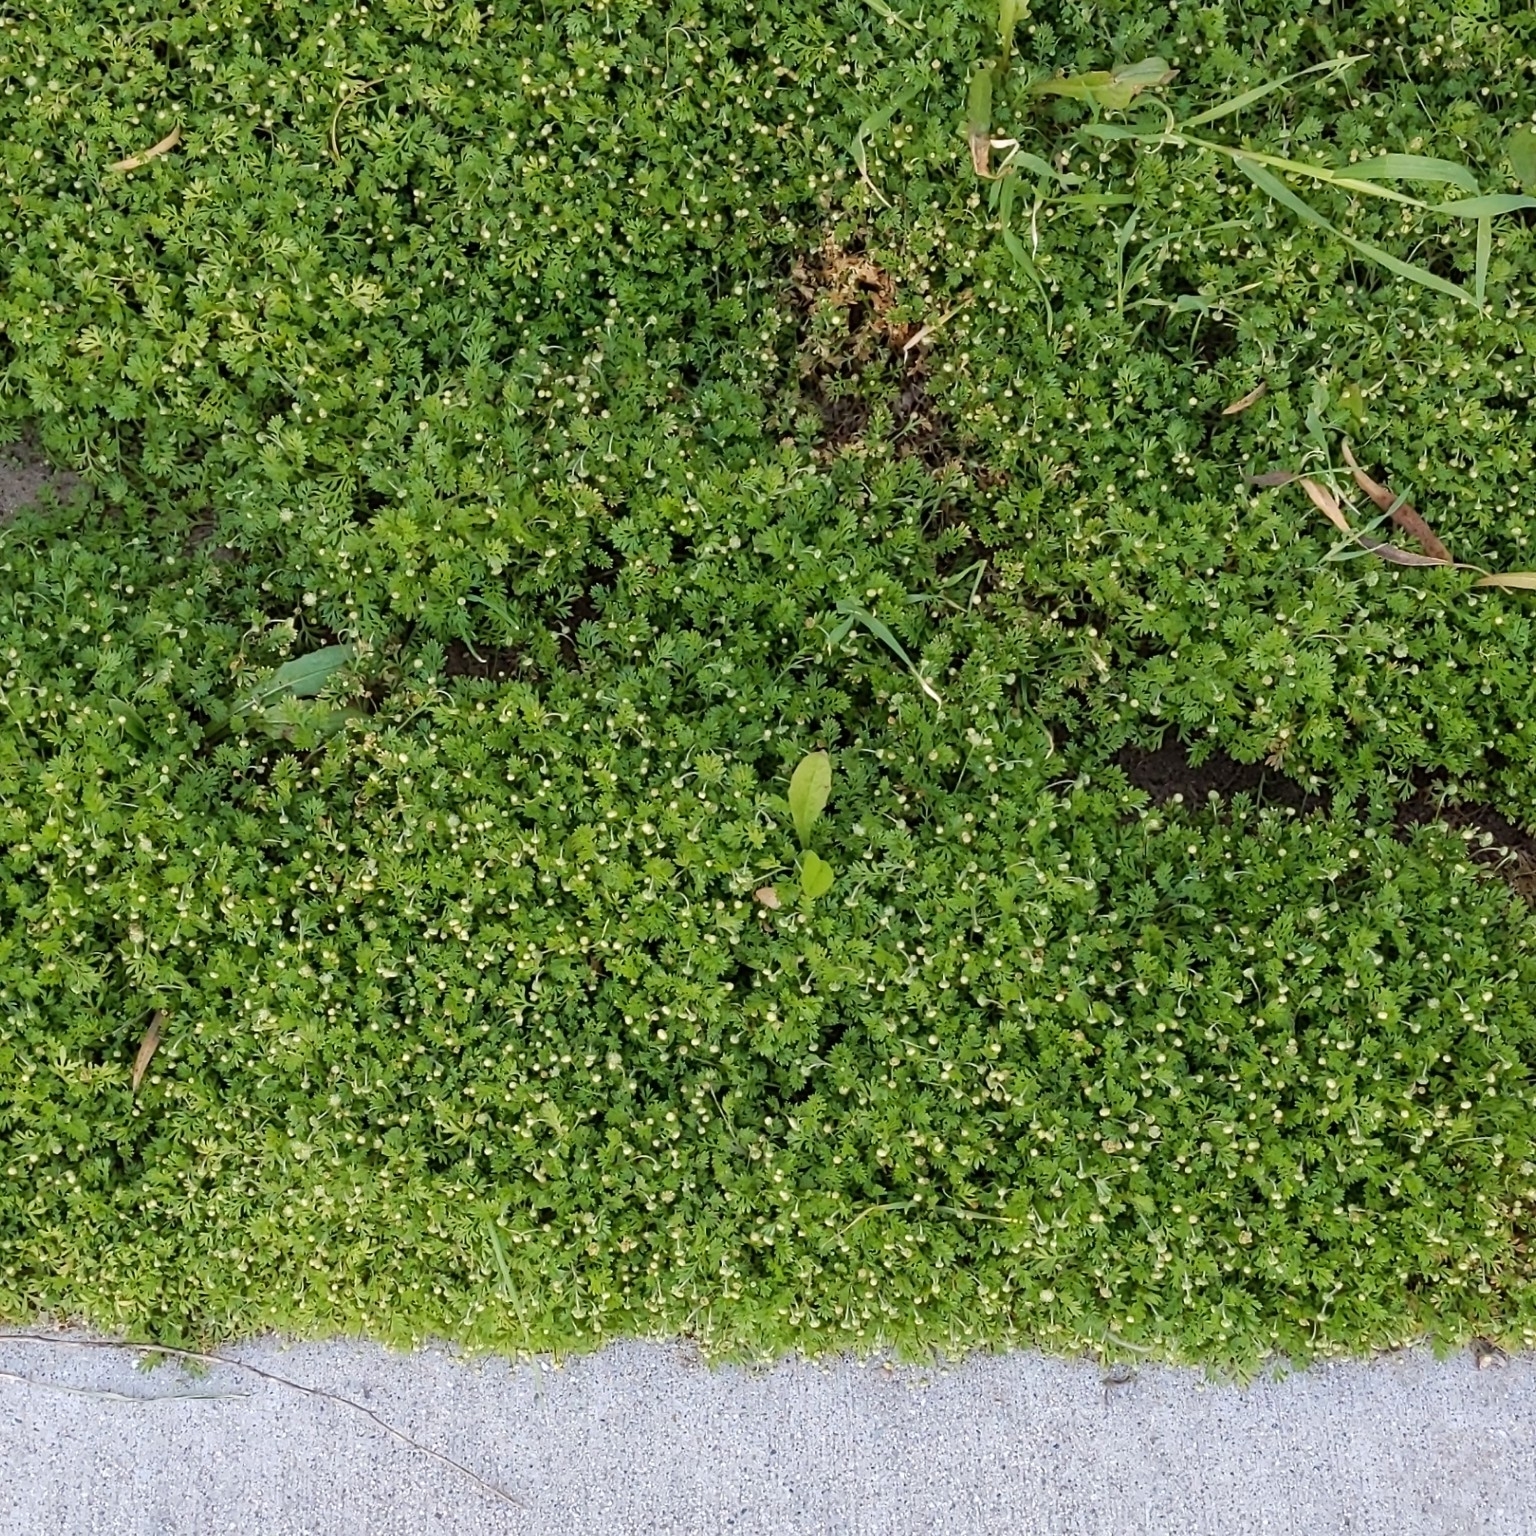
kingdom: Plantae
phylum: Tracheophyta
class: Magnoliopsida
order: Asterales
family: Asteraceae
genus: Cotula
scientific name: Cotula australis
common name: Australian waterbuttons
